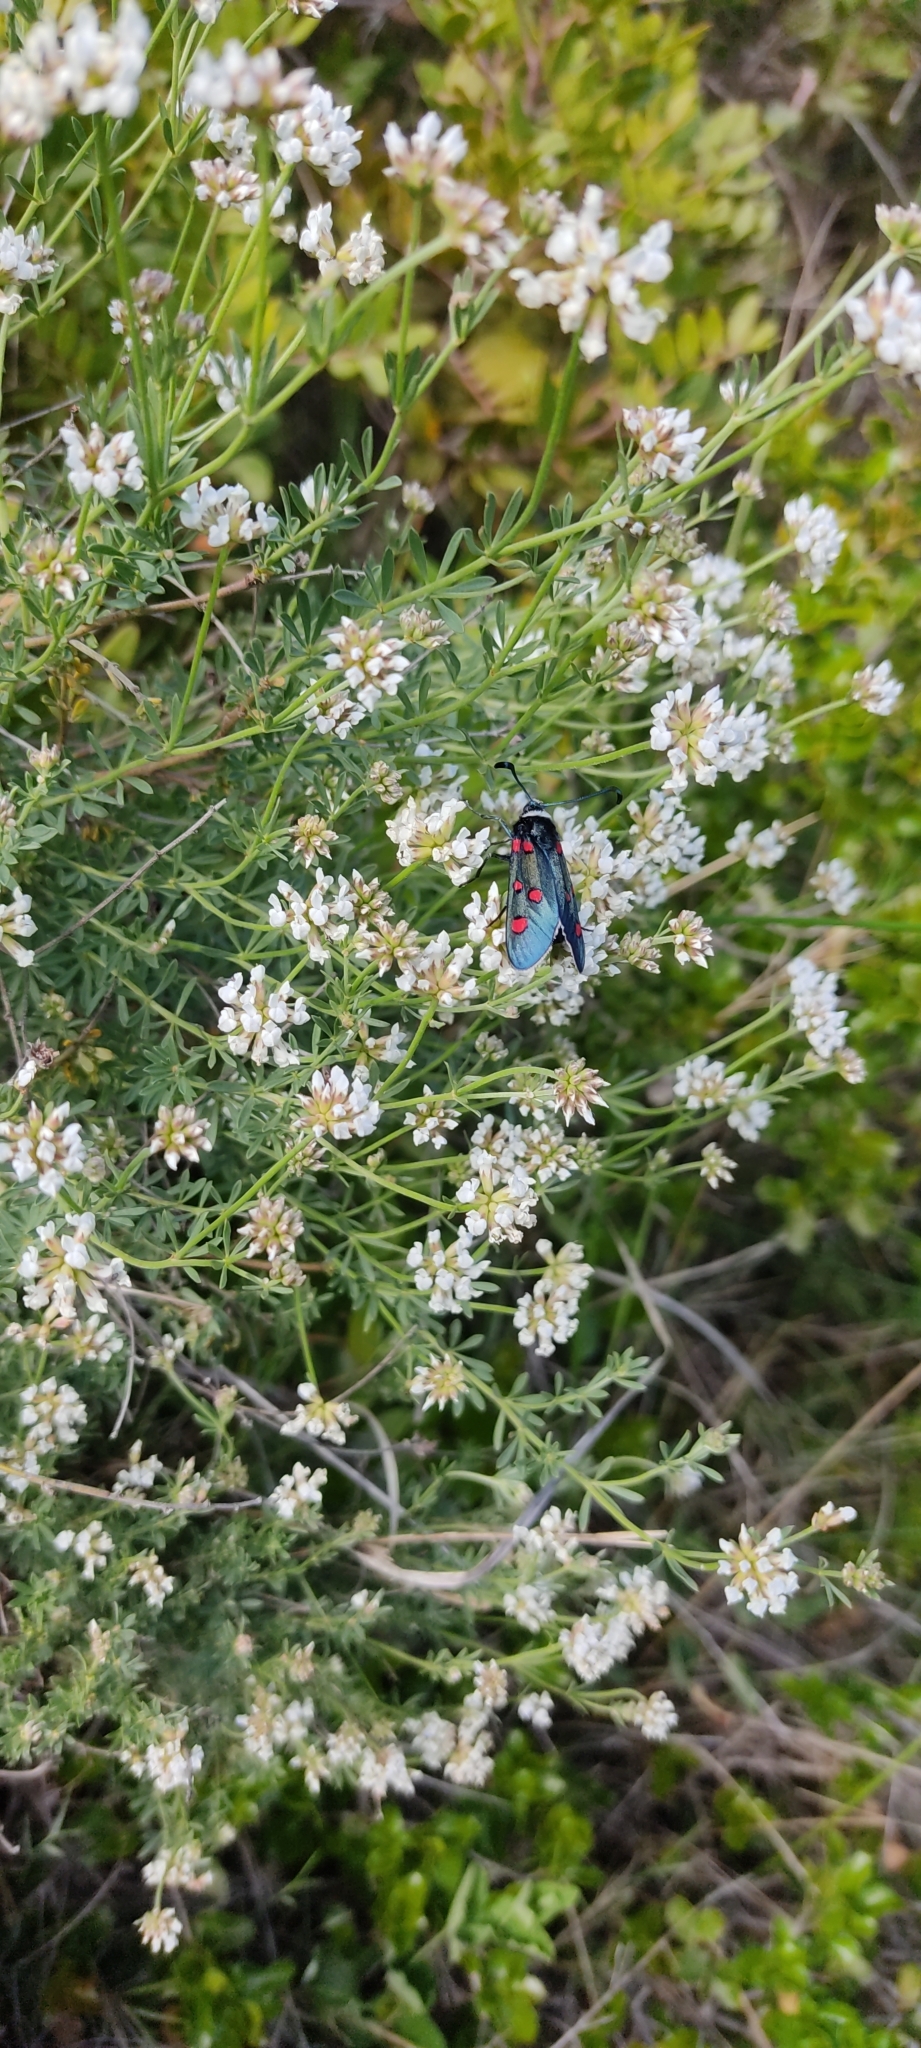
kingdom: Animalia
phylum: Arthropoda
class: Insecta
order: Lepidoptera
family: Zygaenidae
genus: Zygaena
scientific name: Zygaena lavandulae
